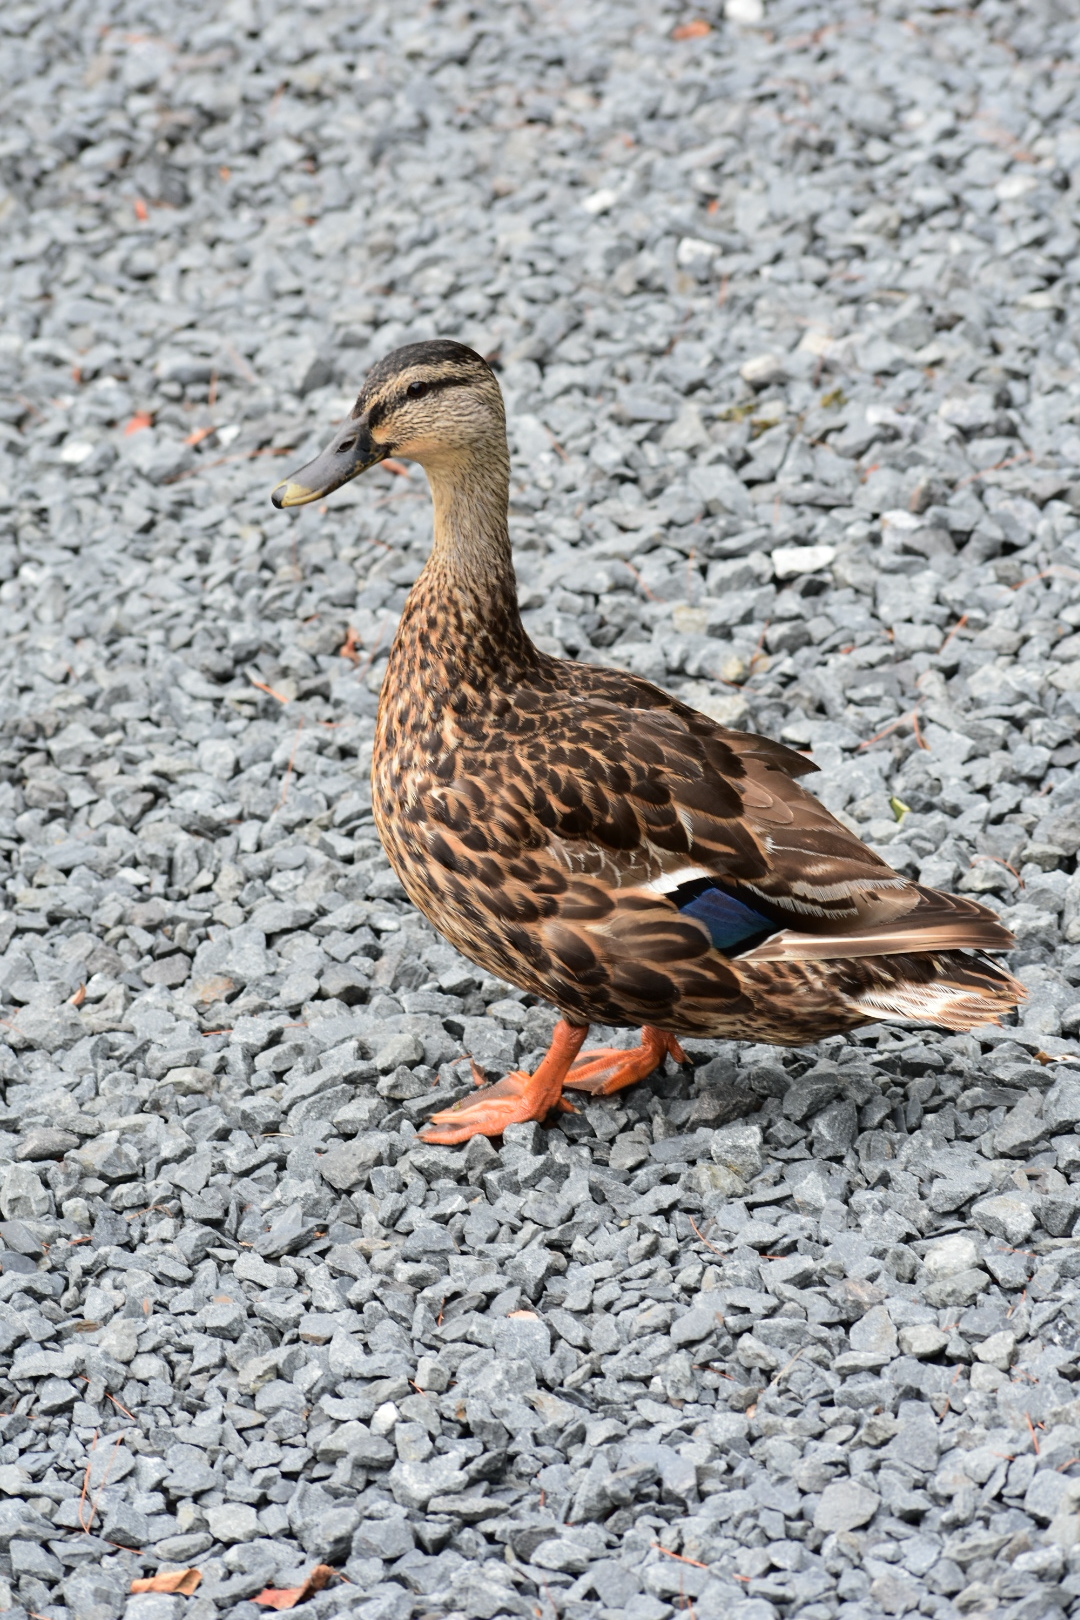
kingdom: Animalia
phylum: Chordata
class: Aves
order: Anseriformes
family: Anatidae
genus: Anas
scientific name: Anas platyrhynchos
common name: Mallard
